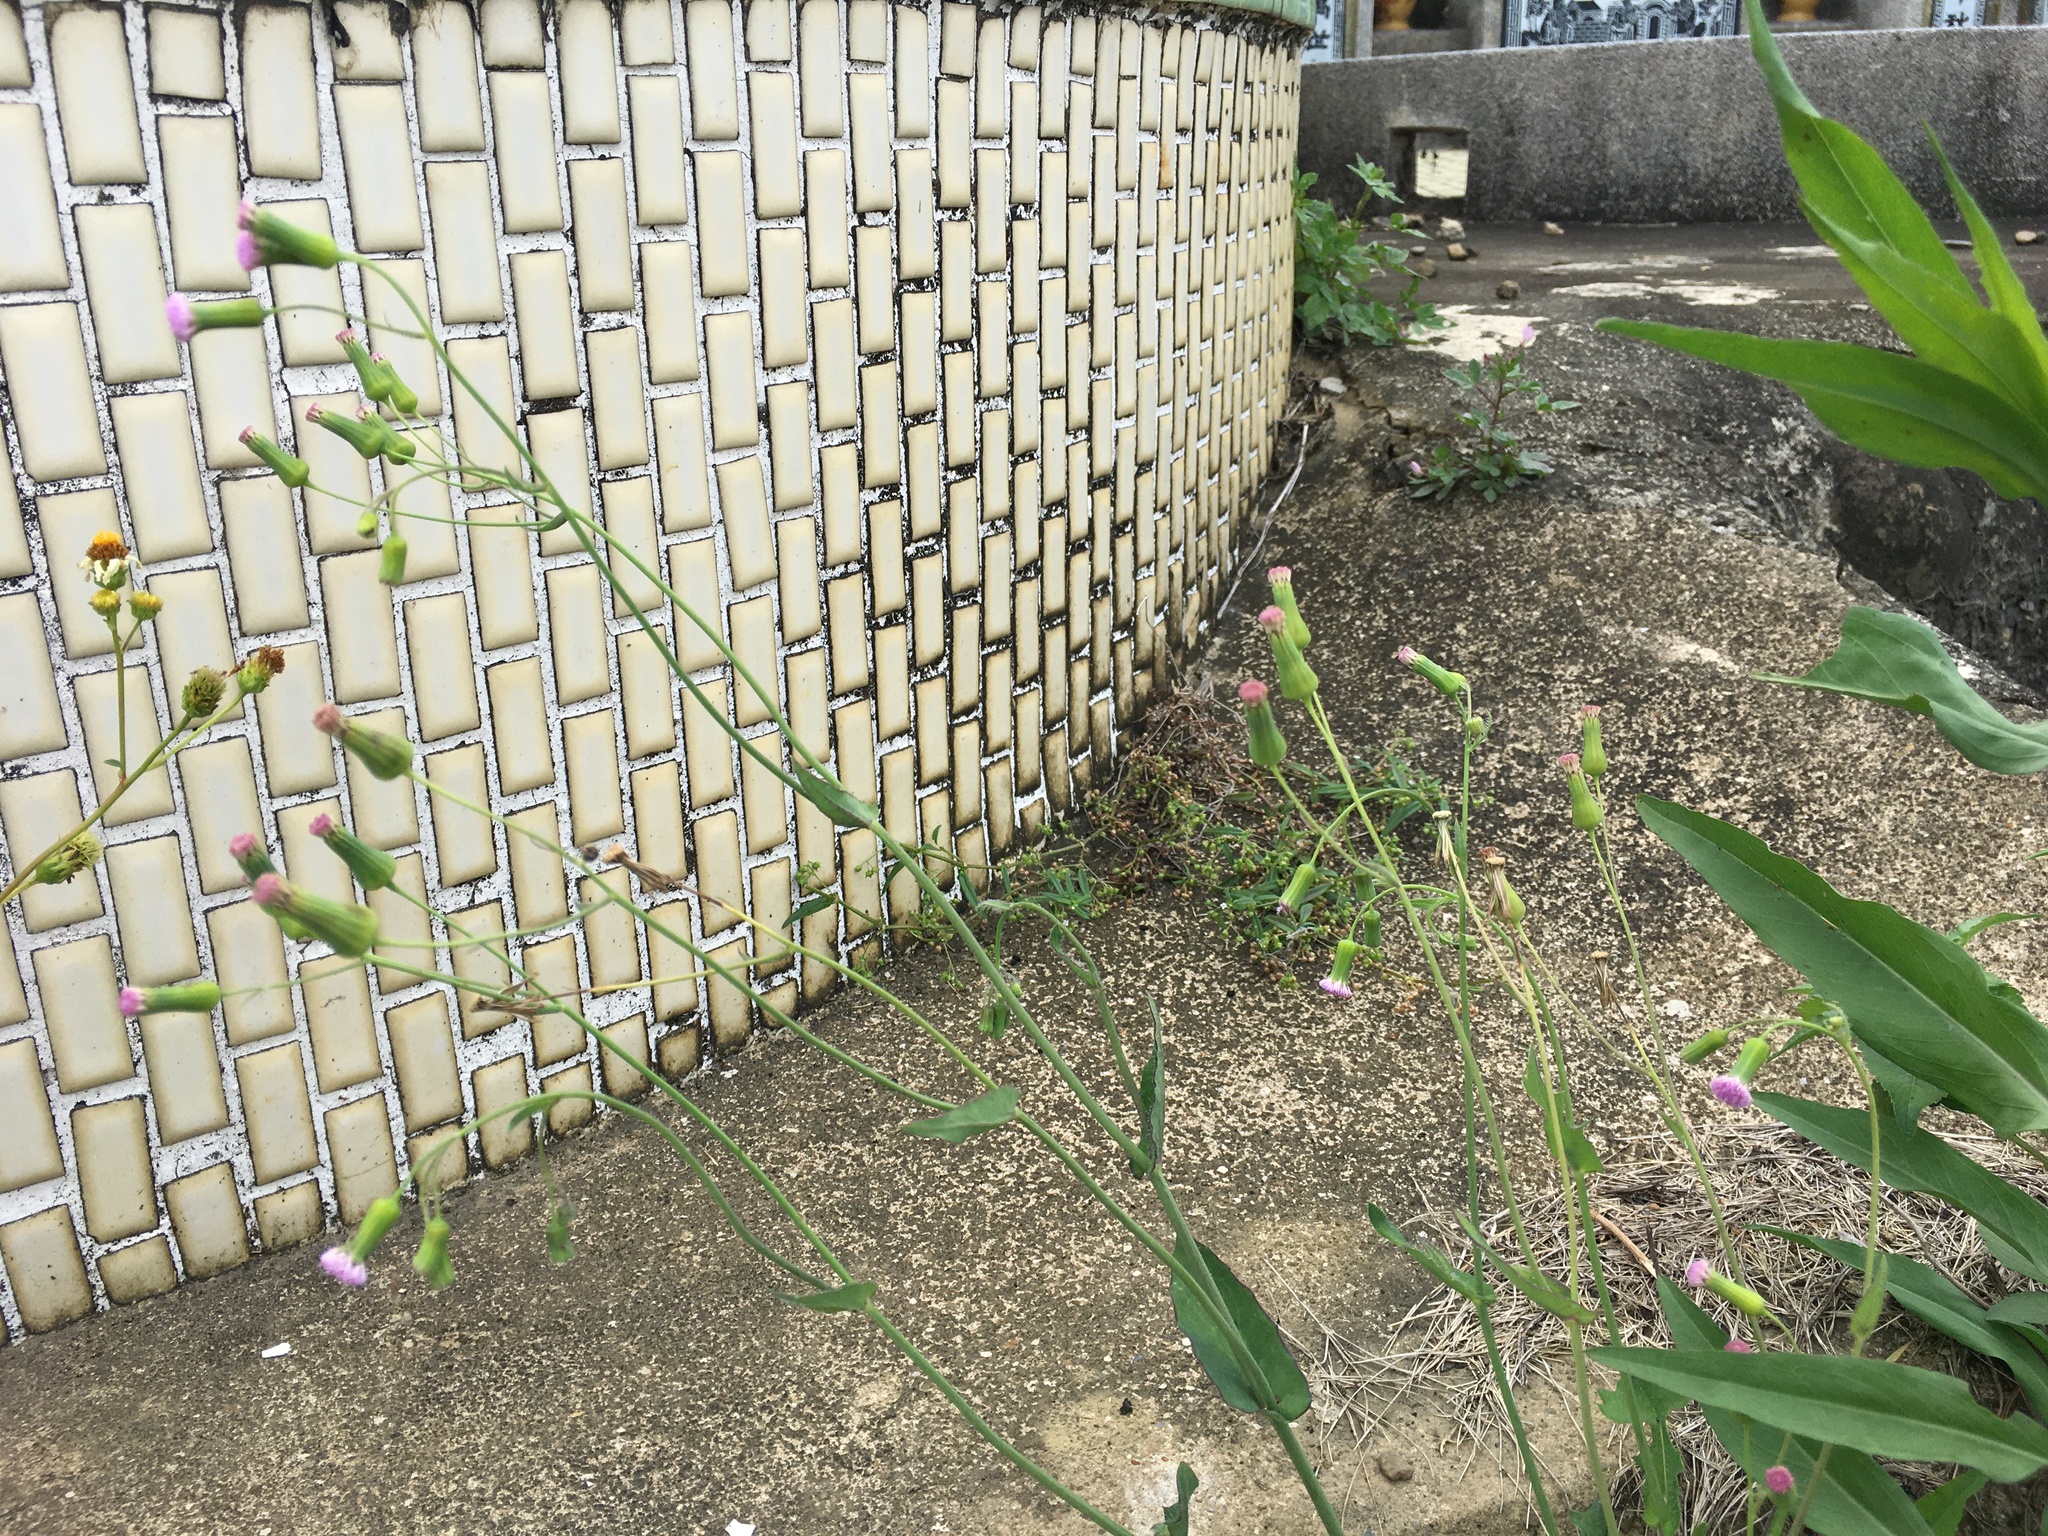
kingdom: Plantae
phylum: Tracheophyta
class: Magnoliopsida
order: Asterales
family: Asteraceae
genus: Emilia
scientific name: Emilia javanica
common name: Tassel-flower
